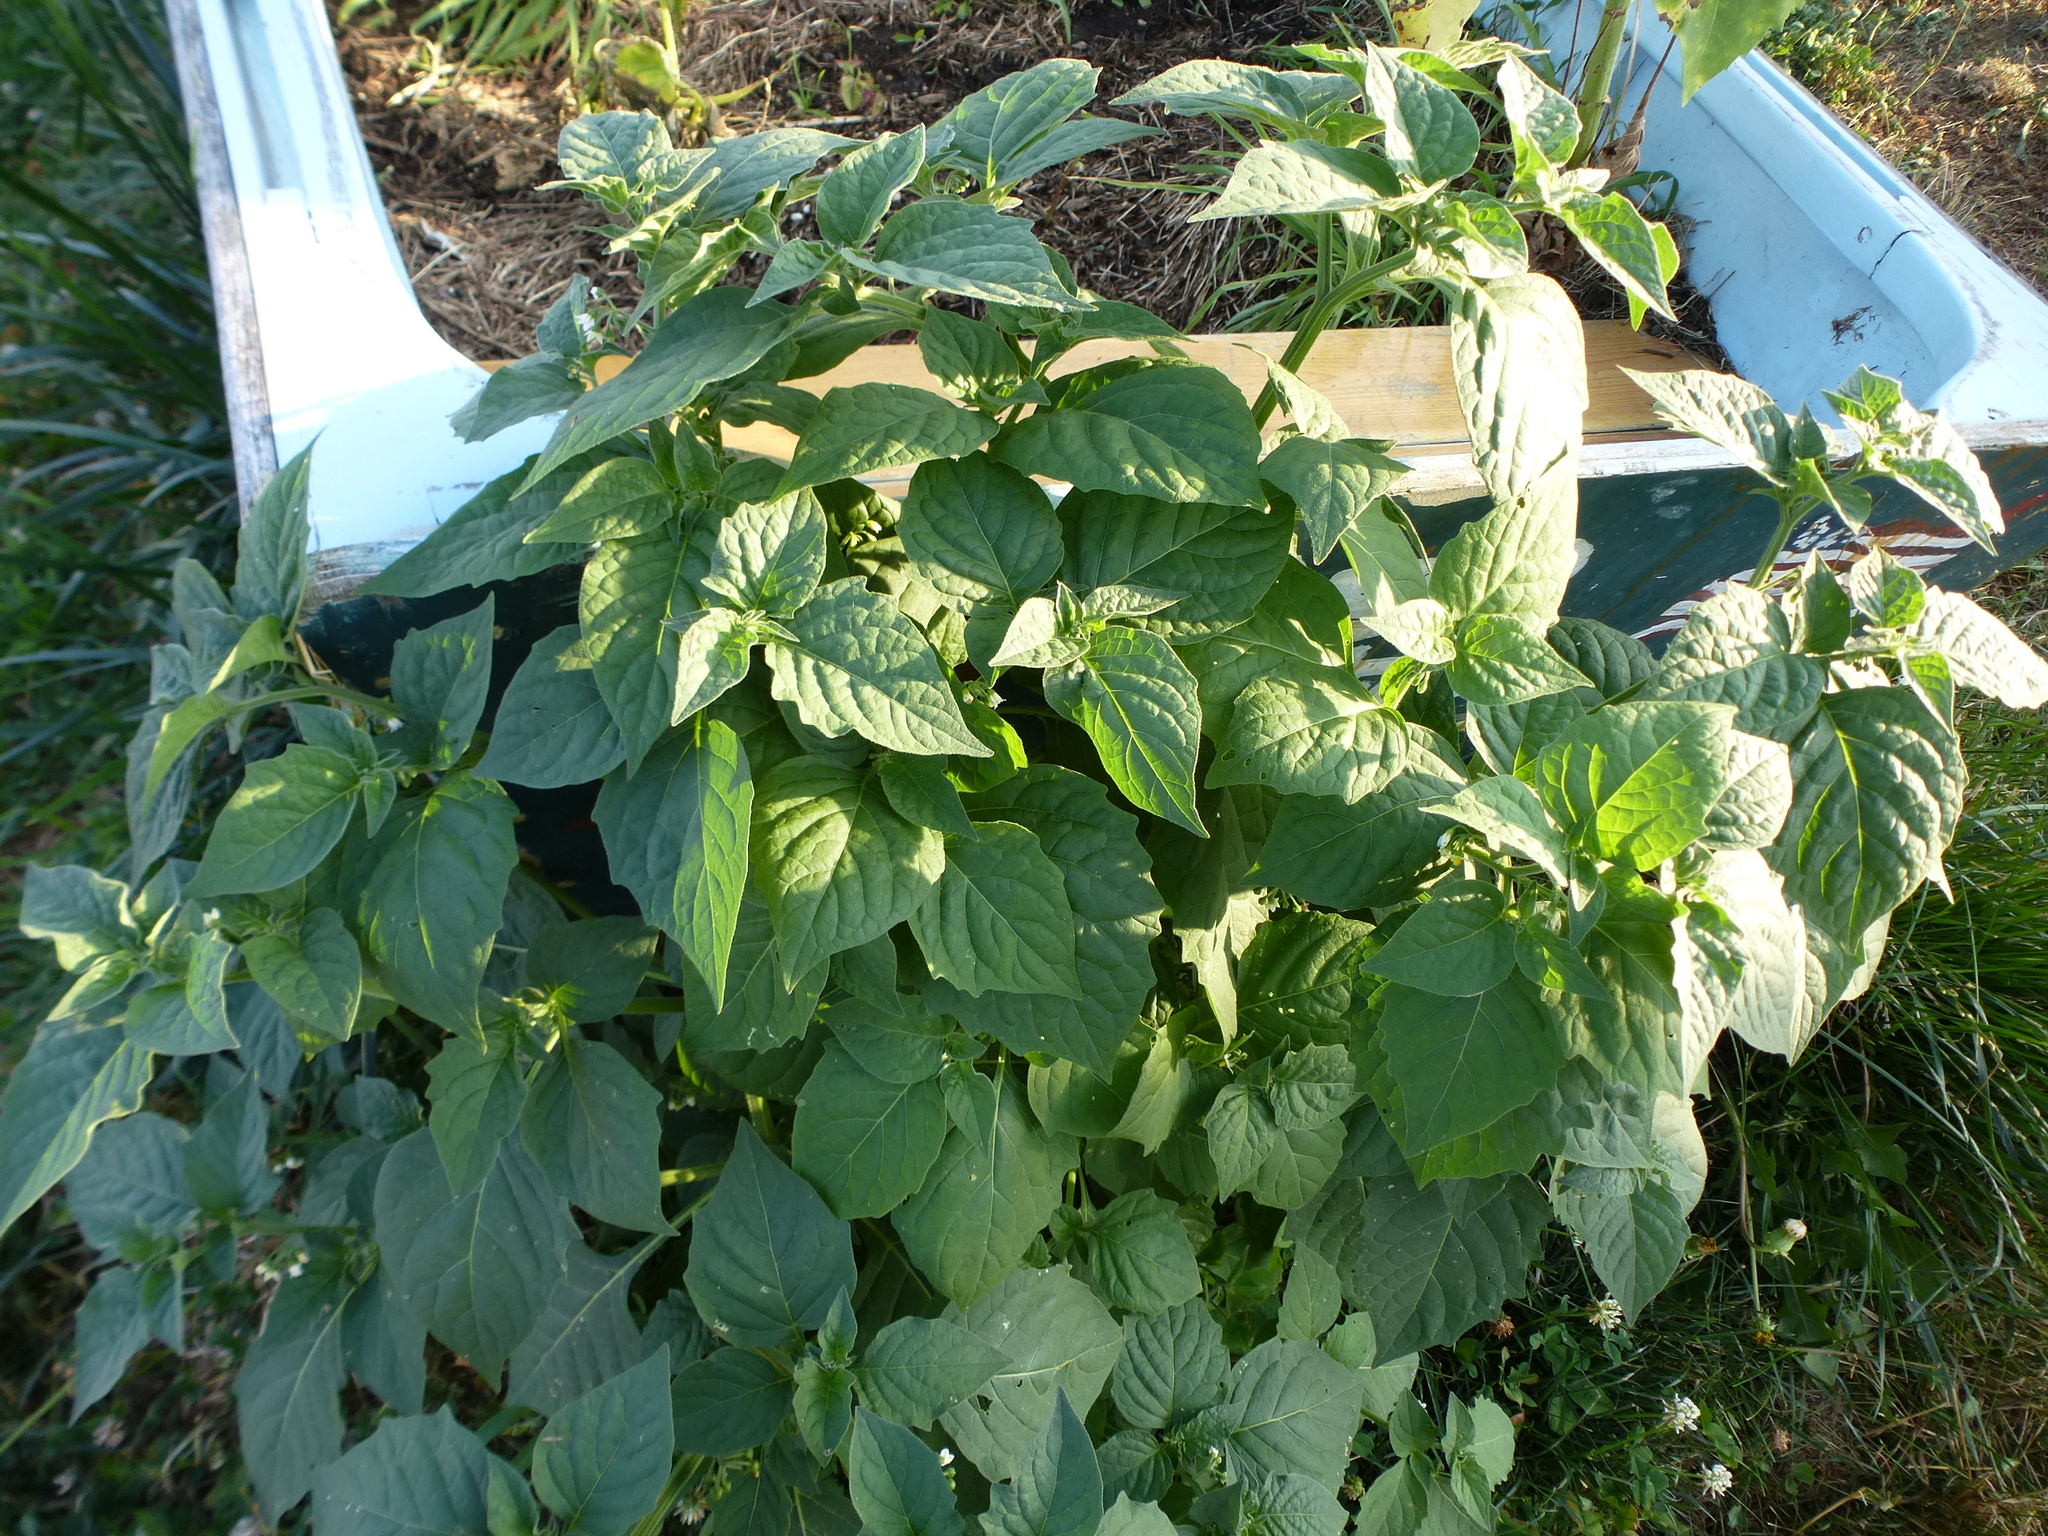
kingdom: Plantae
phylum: Tracheophyta
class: Magnoliopsida
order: Solanales
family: Solanaceae
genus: Solanum
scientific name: Solanum nigrum
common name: Black nightshade
